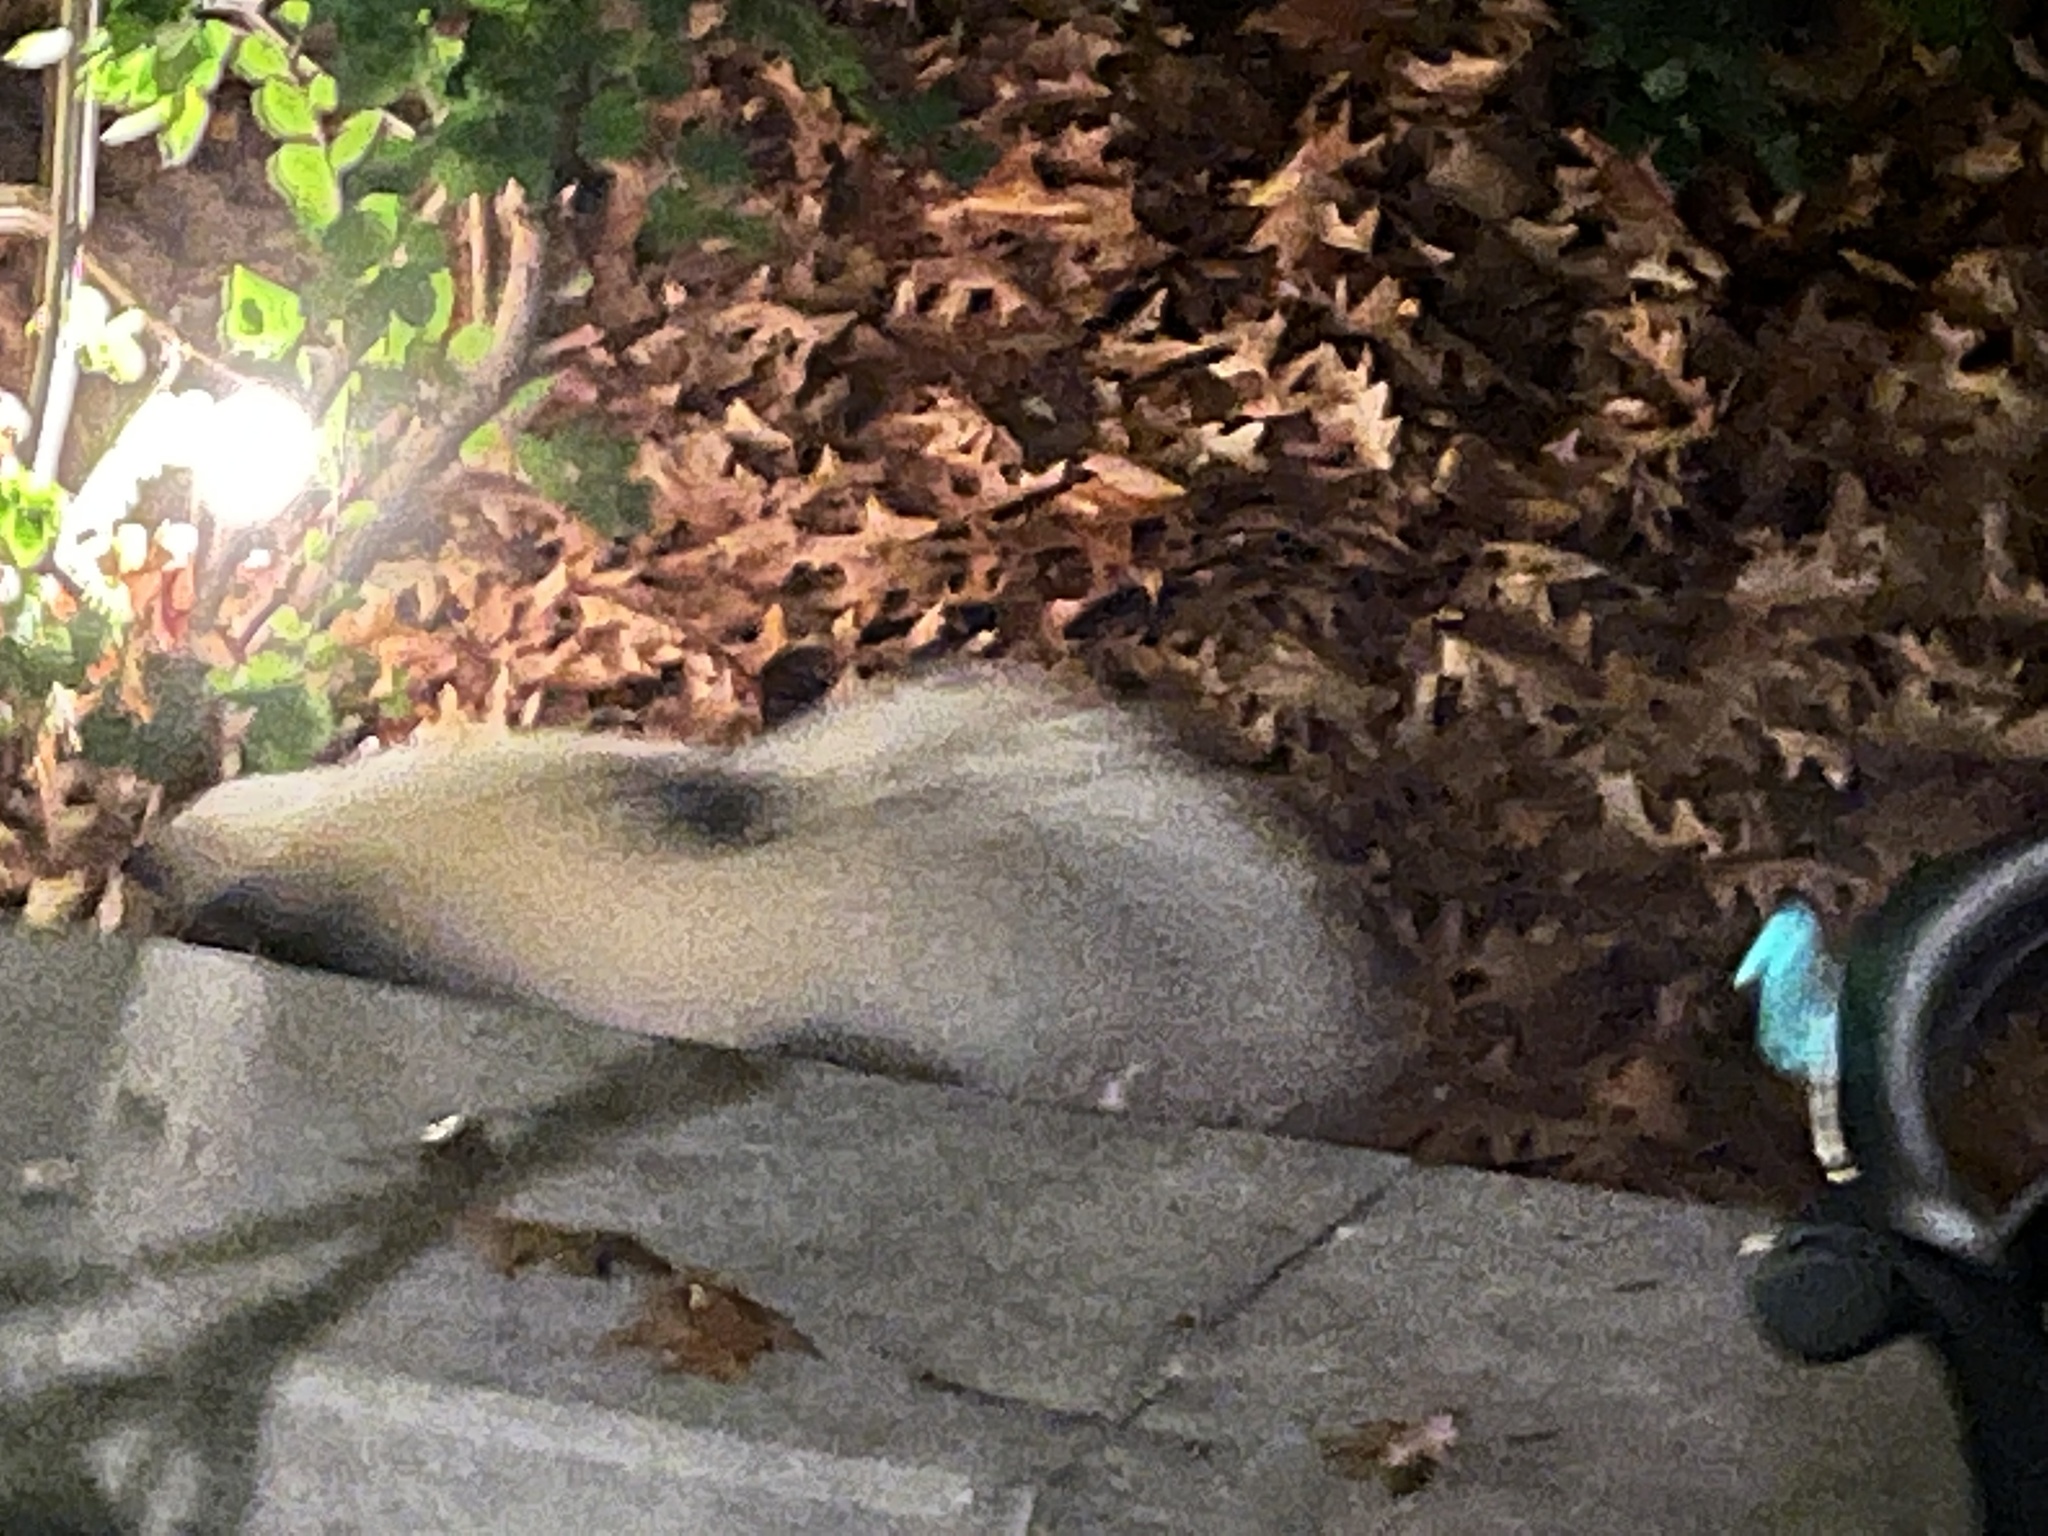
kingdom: Animalia
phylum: Chordata
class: Mammalia
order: Carnivora
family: Mephitidae
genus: Mephitis
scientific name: Mephitis mephitis
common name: Striped skunk
